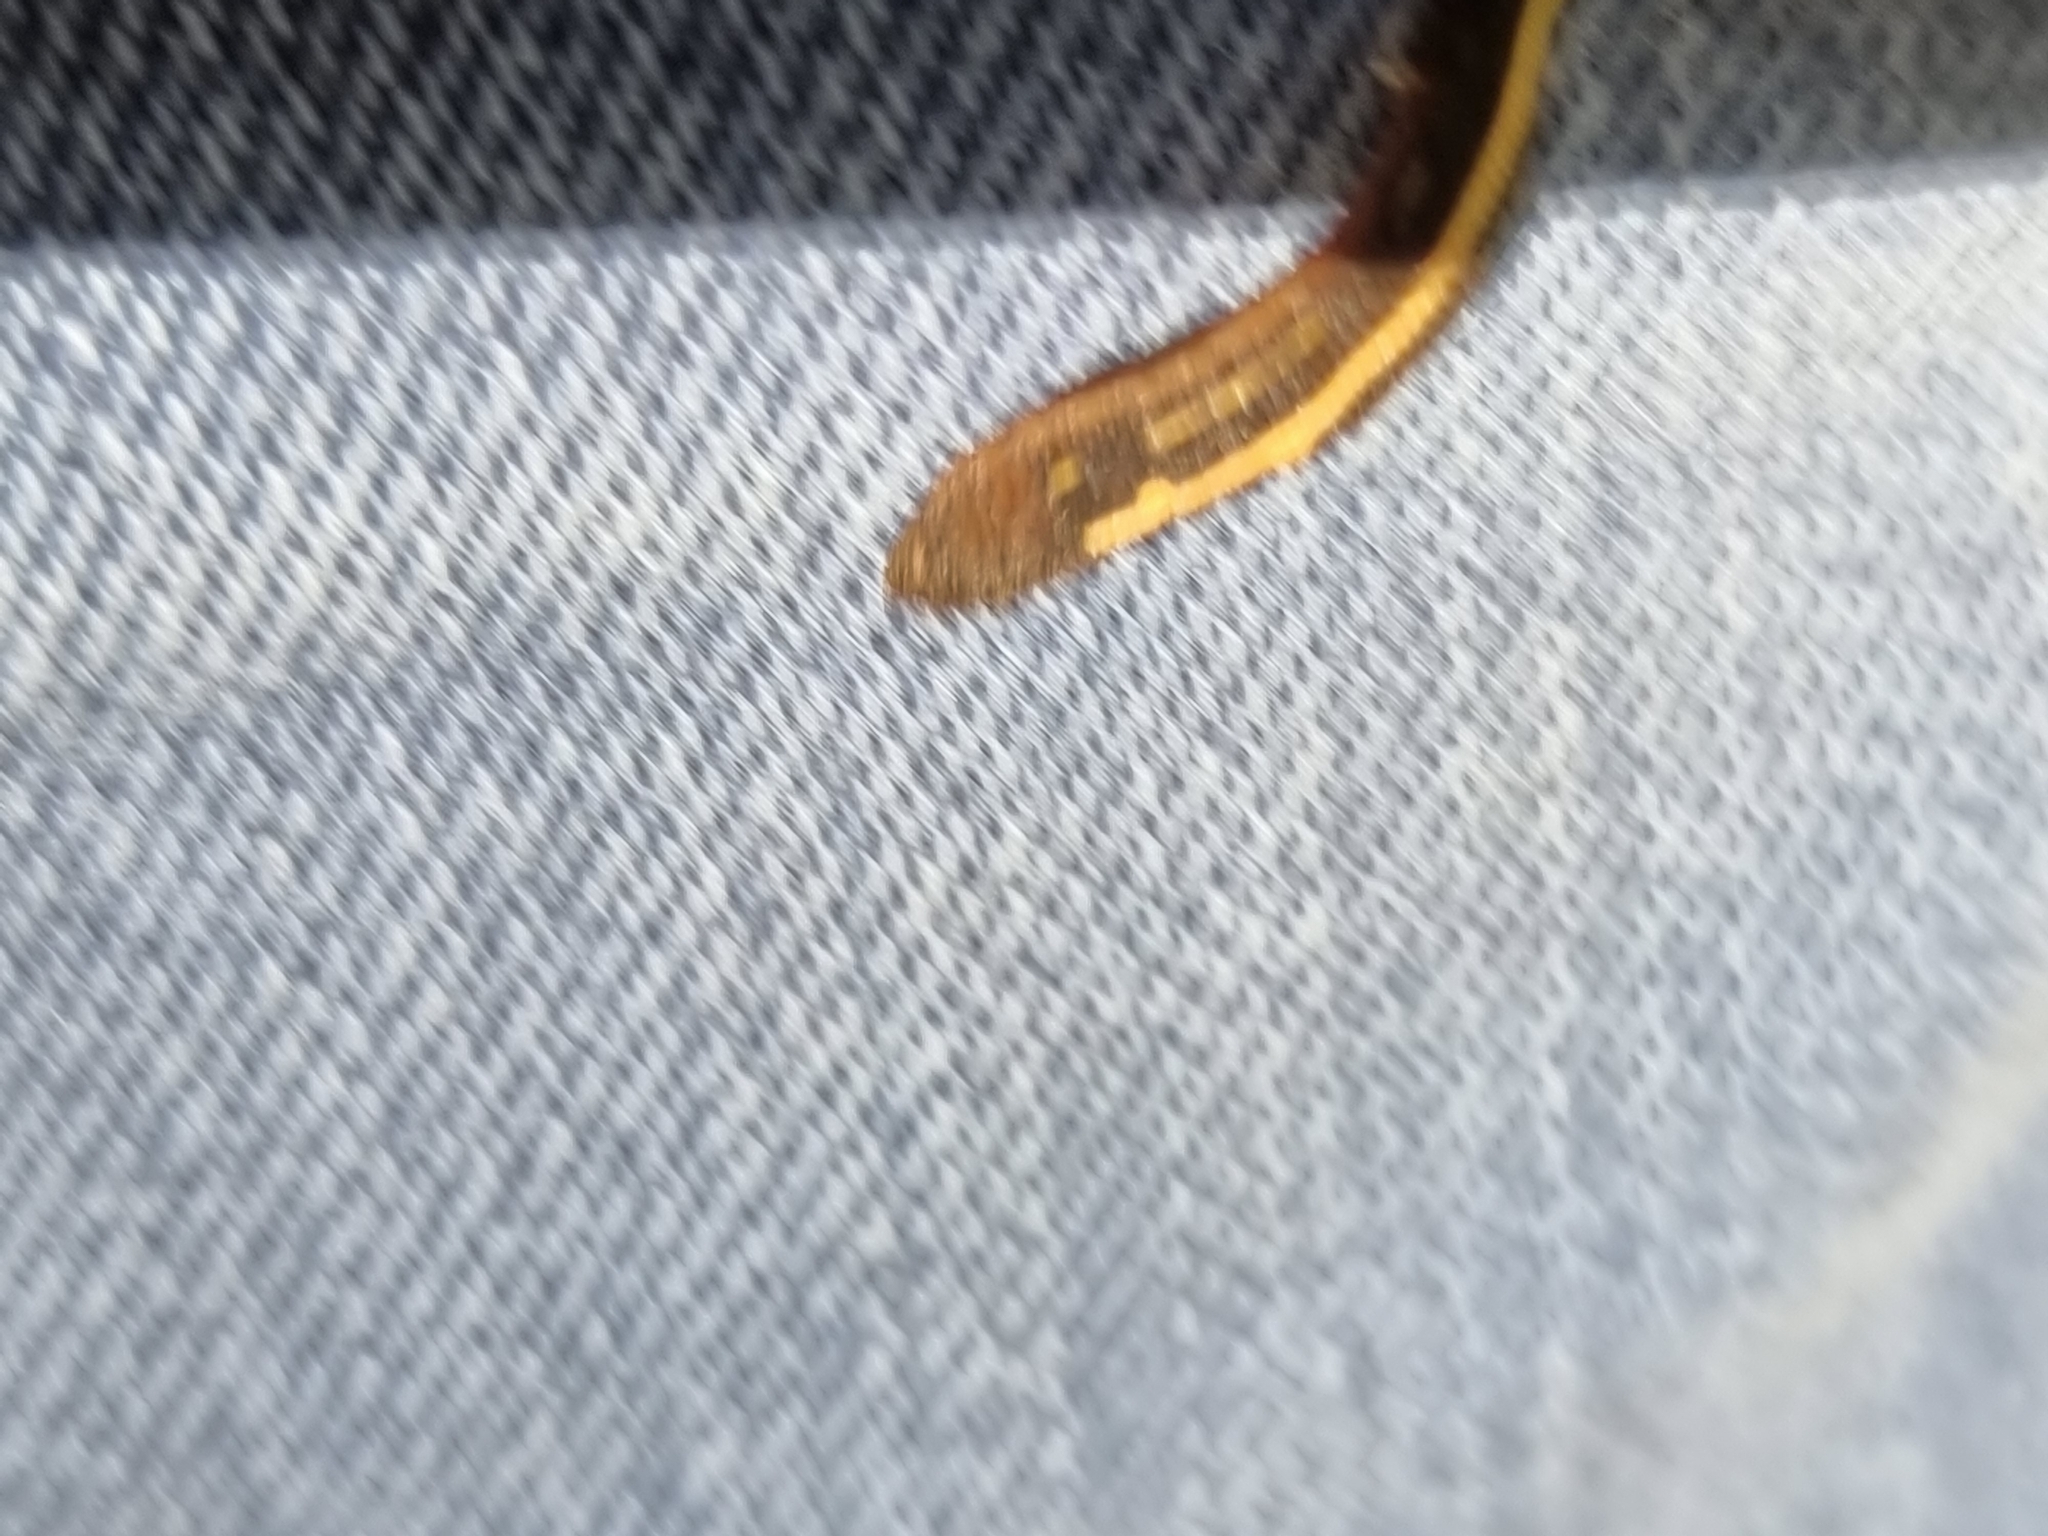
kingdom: Animalia
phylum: Annelida
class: Clitellata
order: Arhynchobdellida
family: Haemadipsidae
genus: Chtonobdella
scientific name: Chtonobdella limbata
